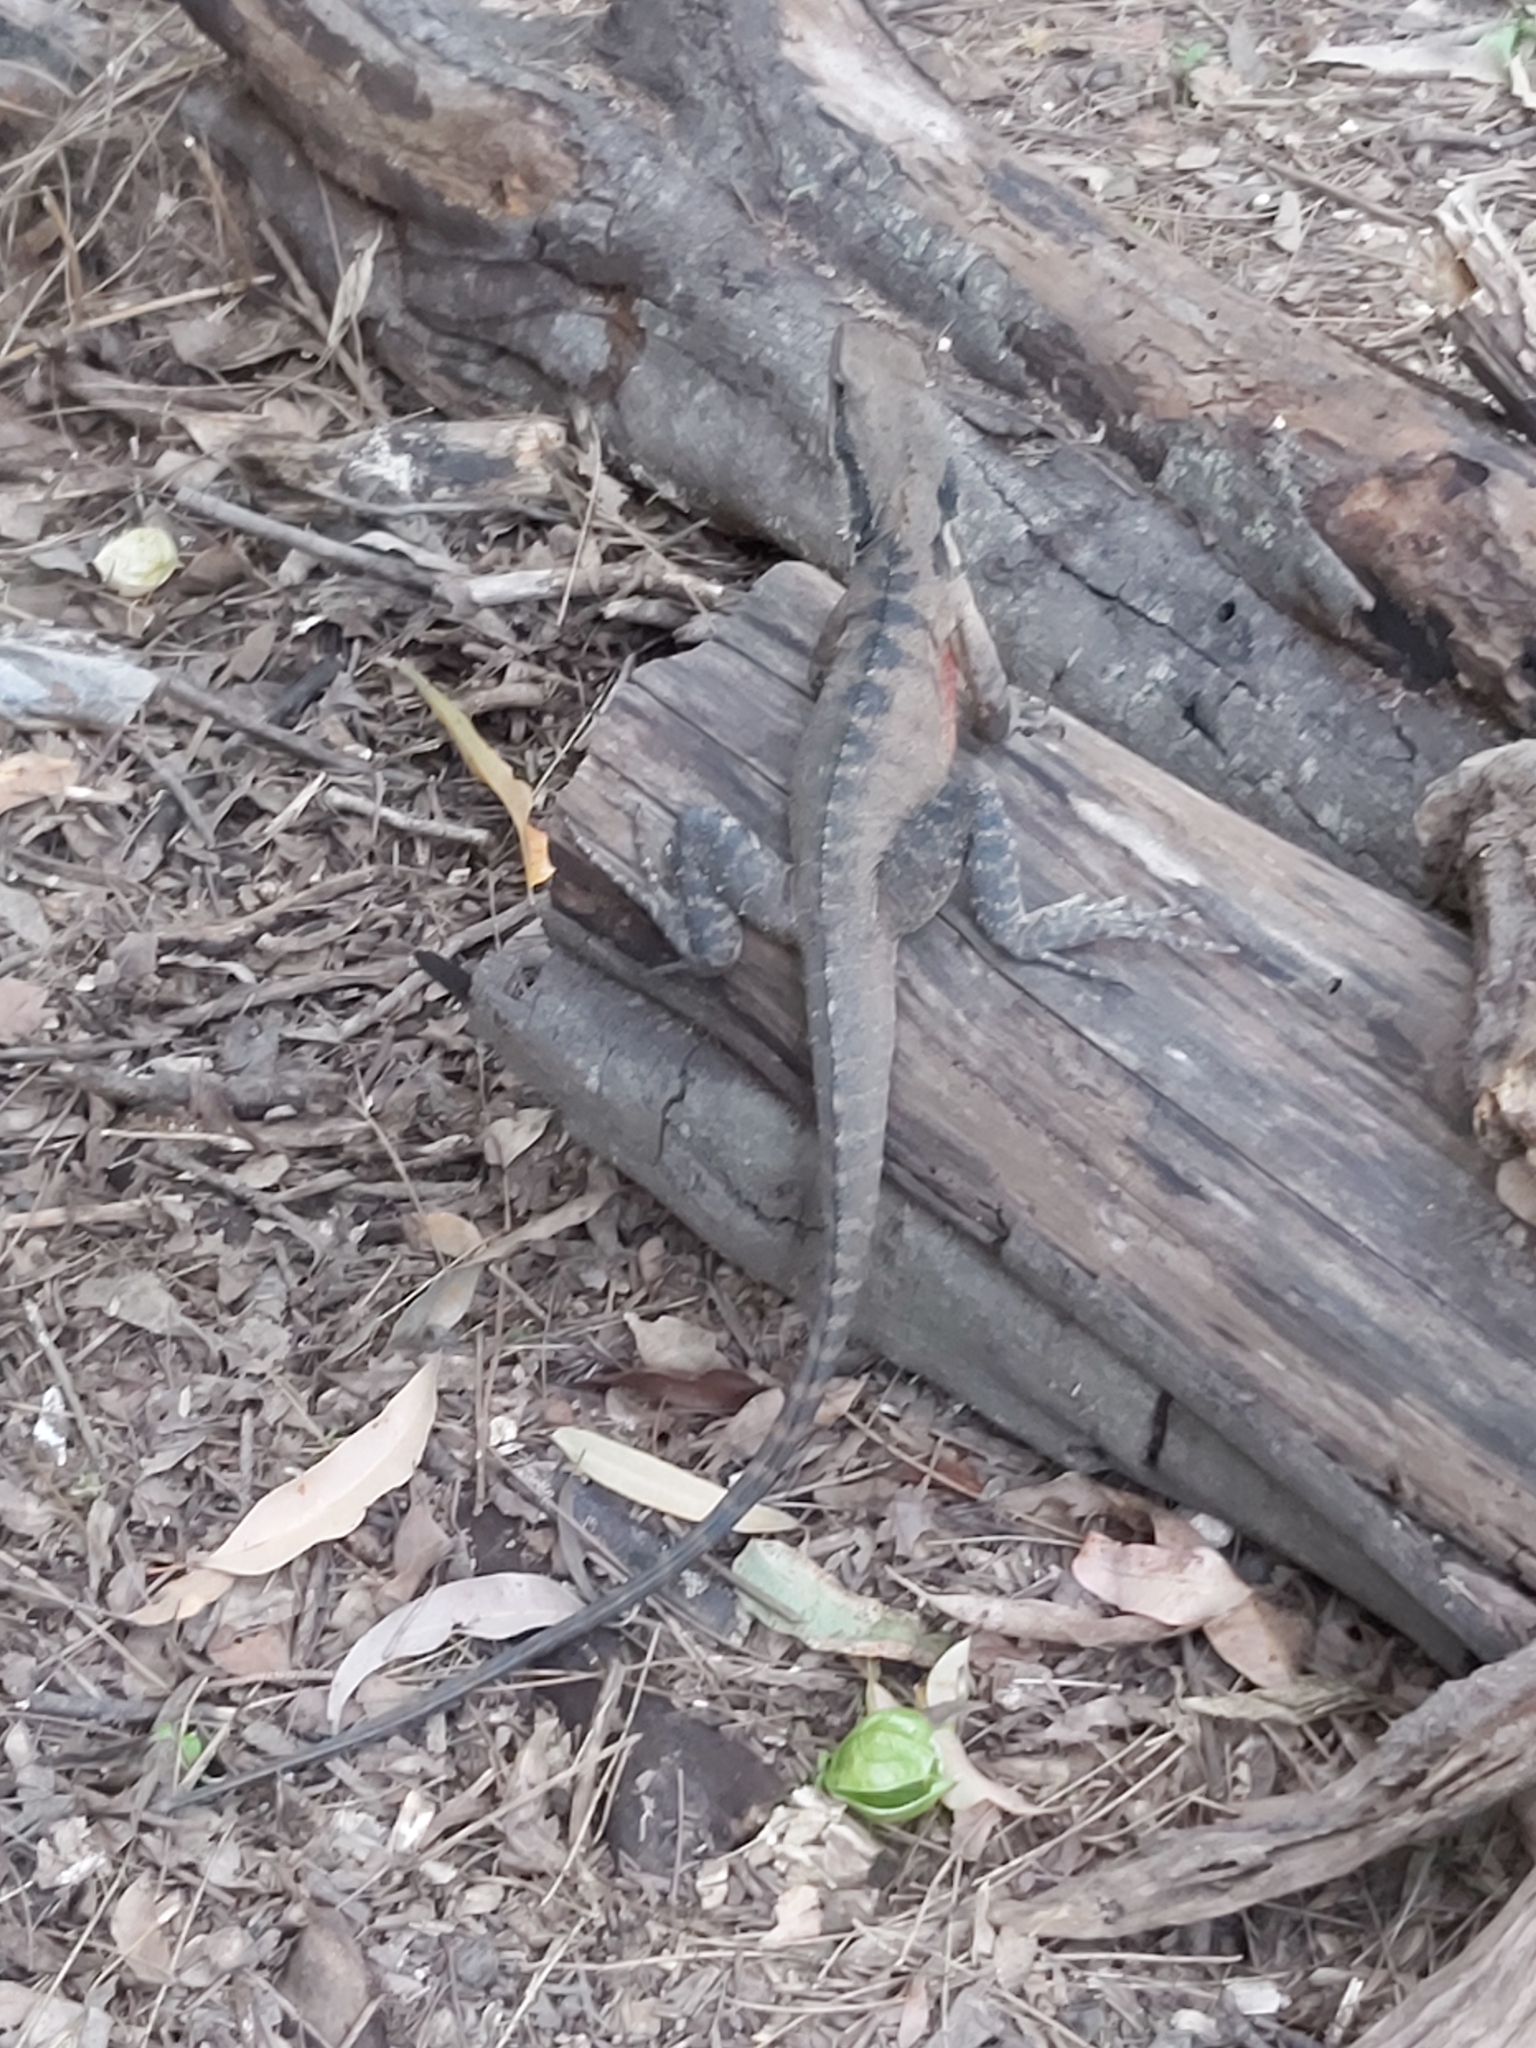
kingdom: Animalia
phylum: Chordata
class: Squamata
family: Agamidae
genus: Intellagama
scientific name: Intellagama lesueurii
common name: Eastern water dragon
